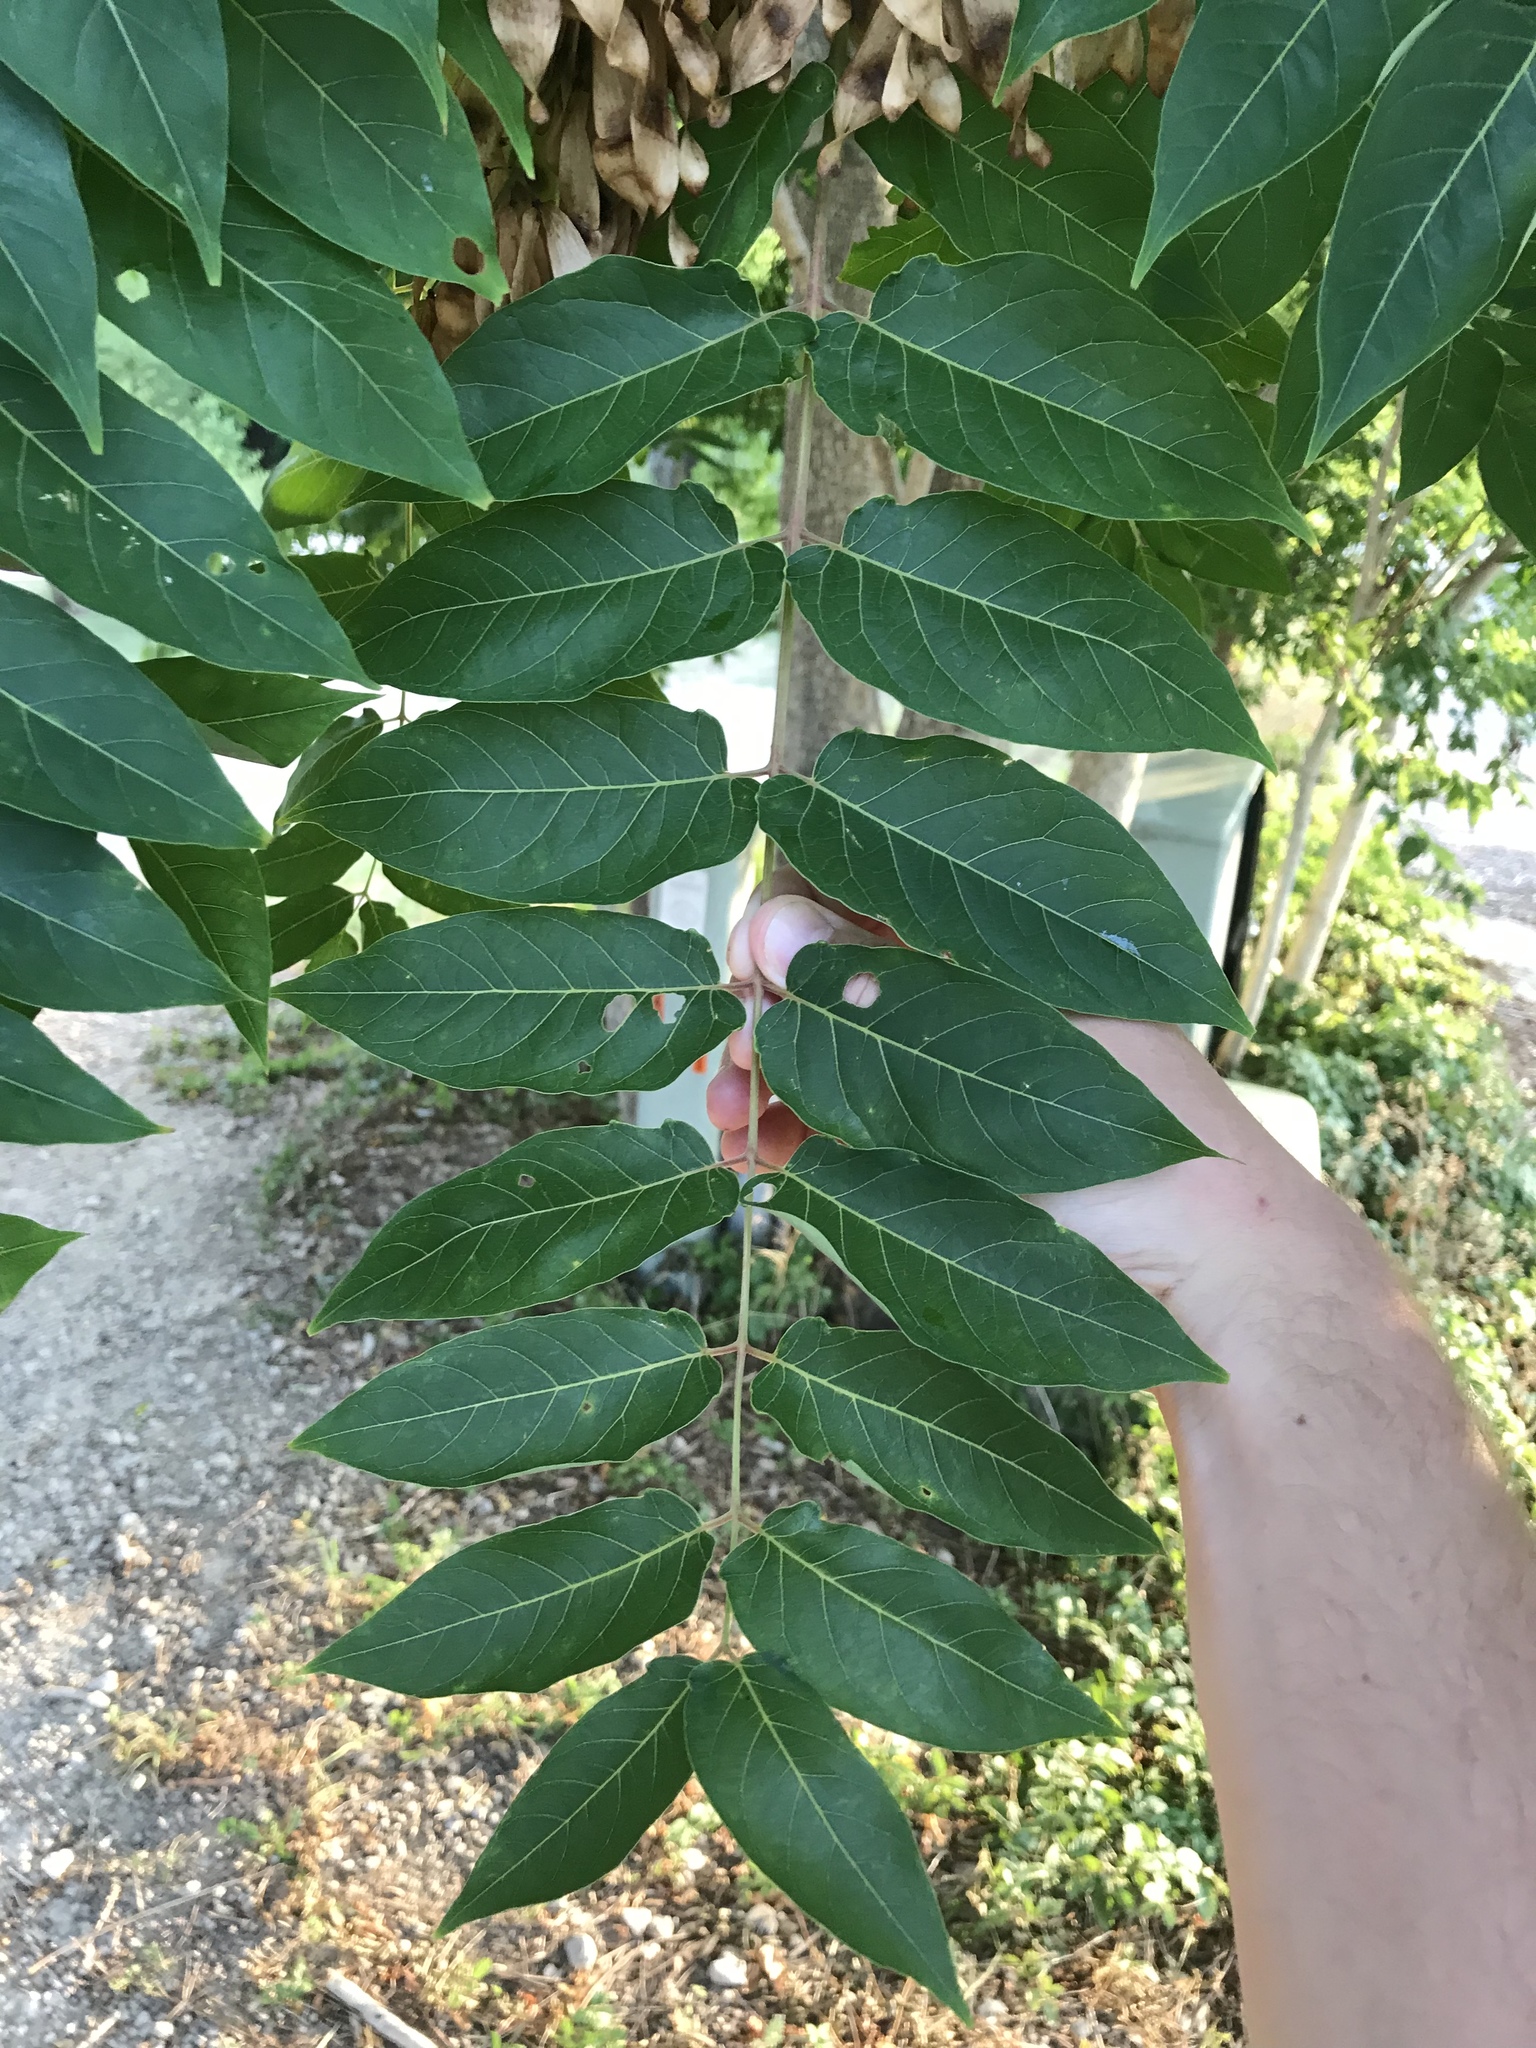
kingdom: Plantae
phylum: Tracheophyta
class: Magnoliopsida
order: Sapindales
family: Simaroubaceae
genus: Ailanthus
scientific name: Ailanthus altissima
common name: Tree-of-heaven
